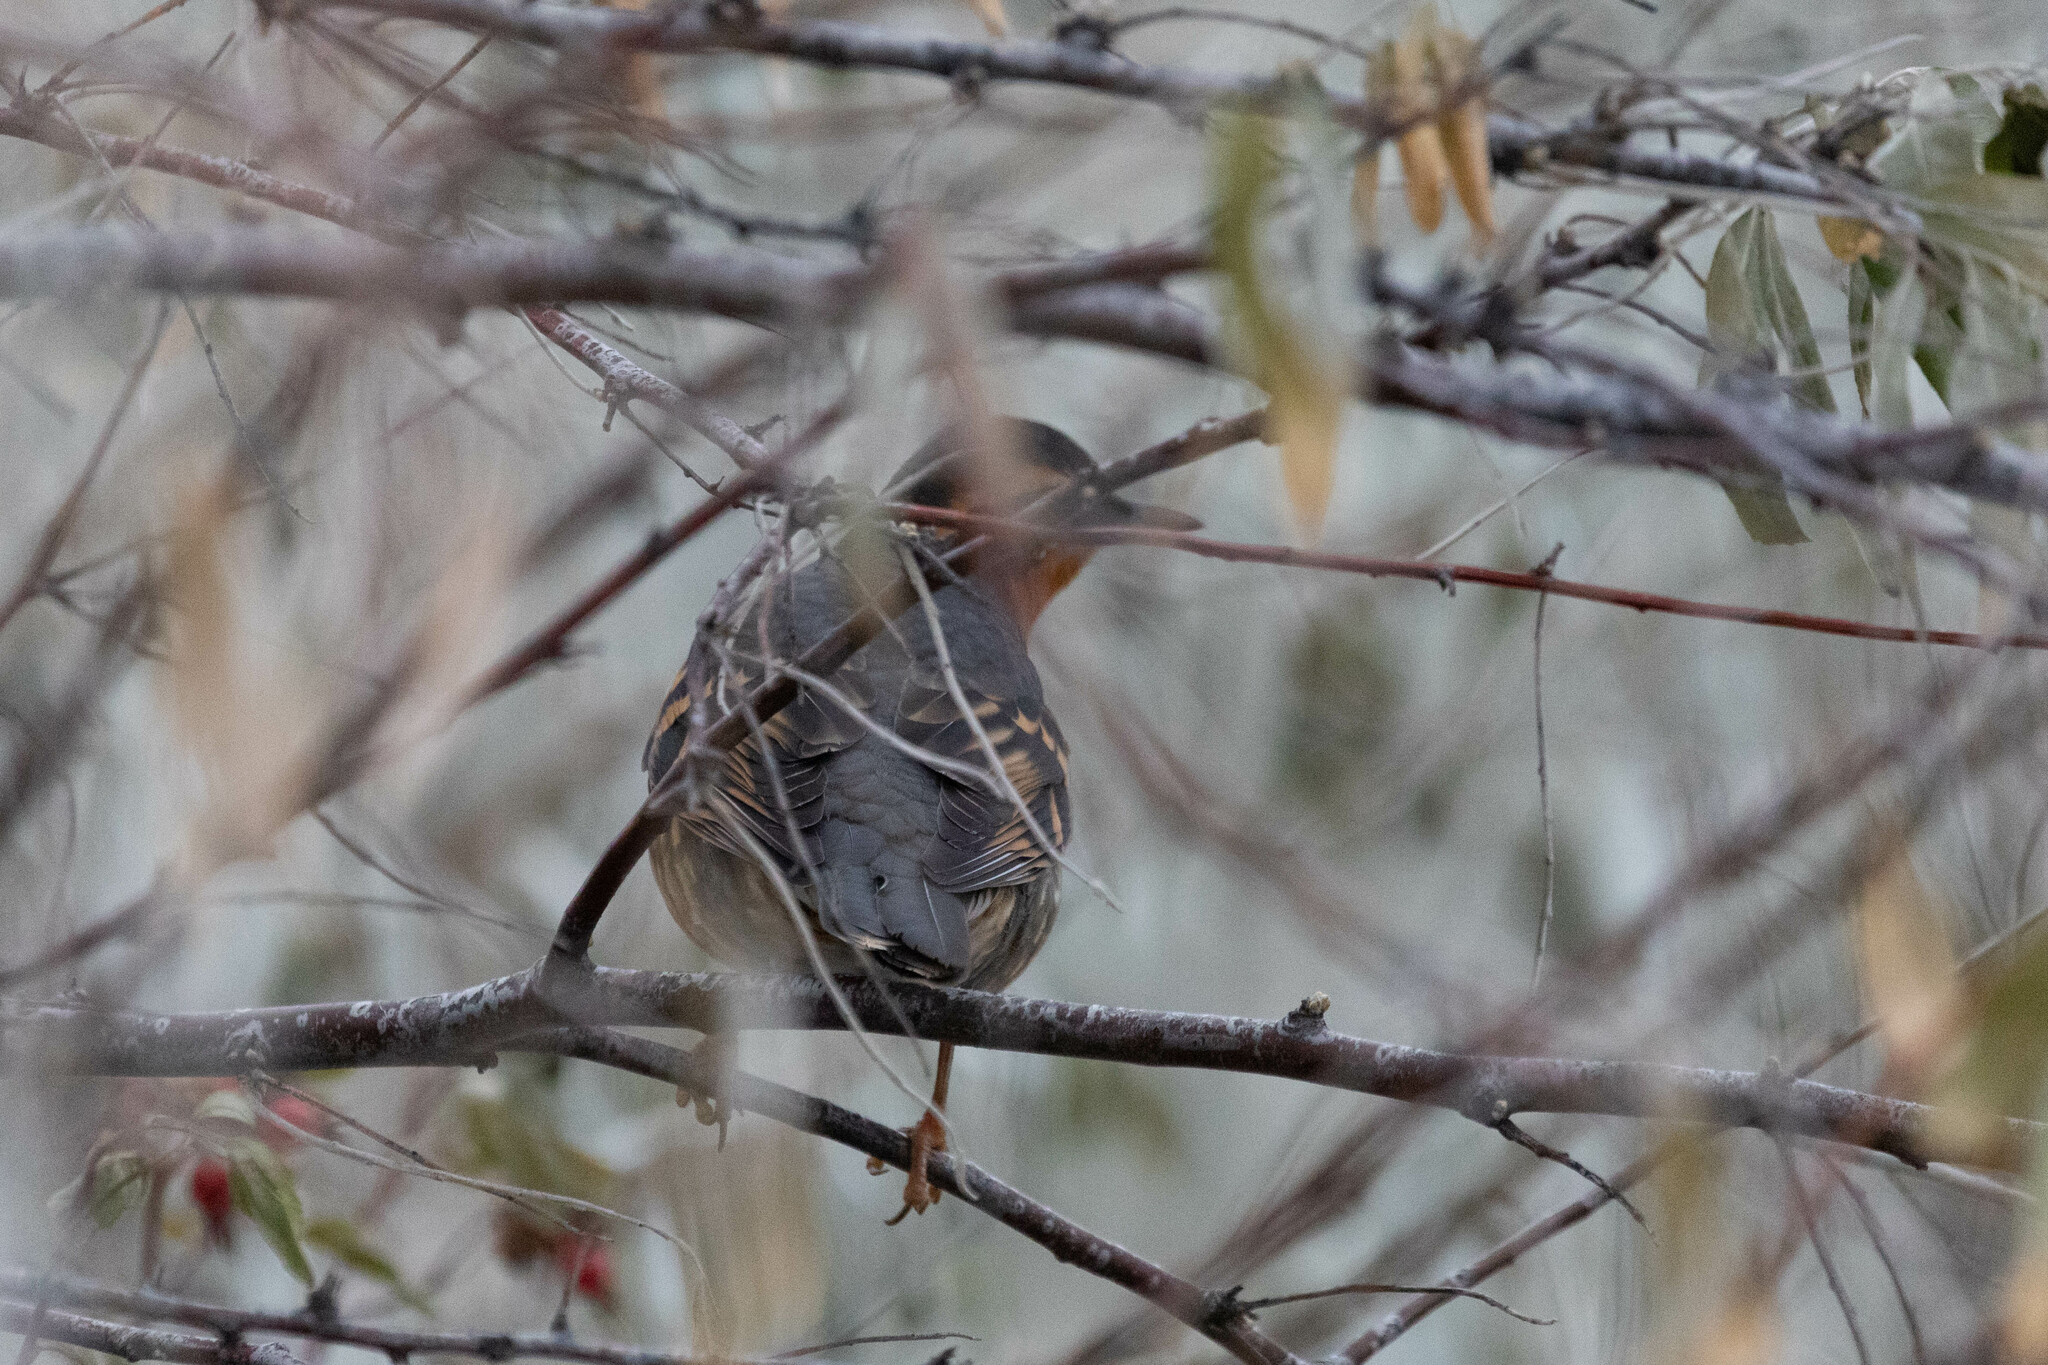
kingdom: Animalia
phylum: Chordata
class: Aves
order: Passeriformes
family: Turdidae
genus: Ixoreus
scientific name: Ixoreus naevius
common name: Varied thrush
